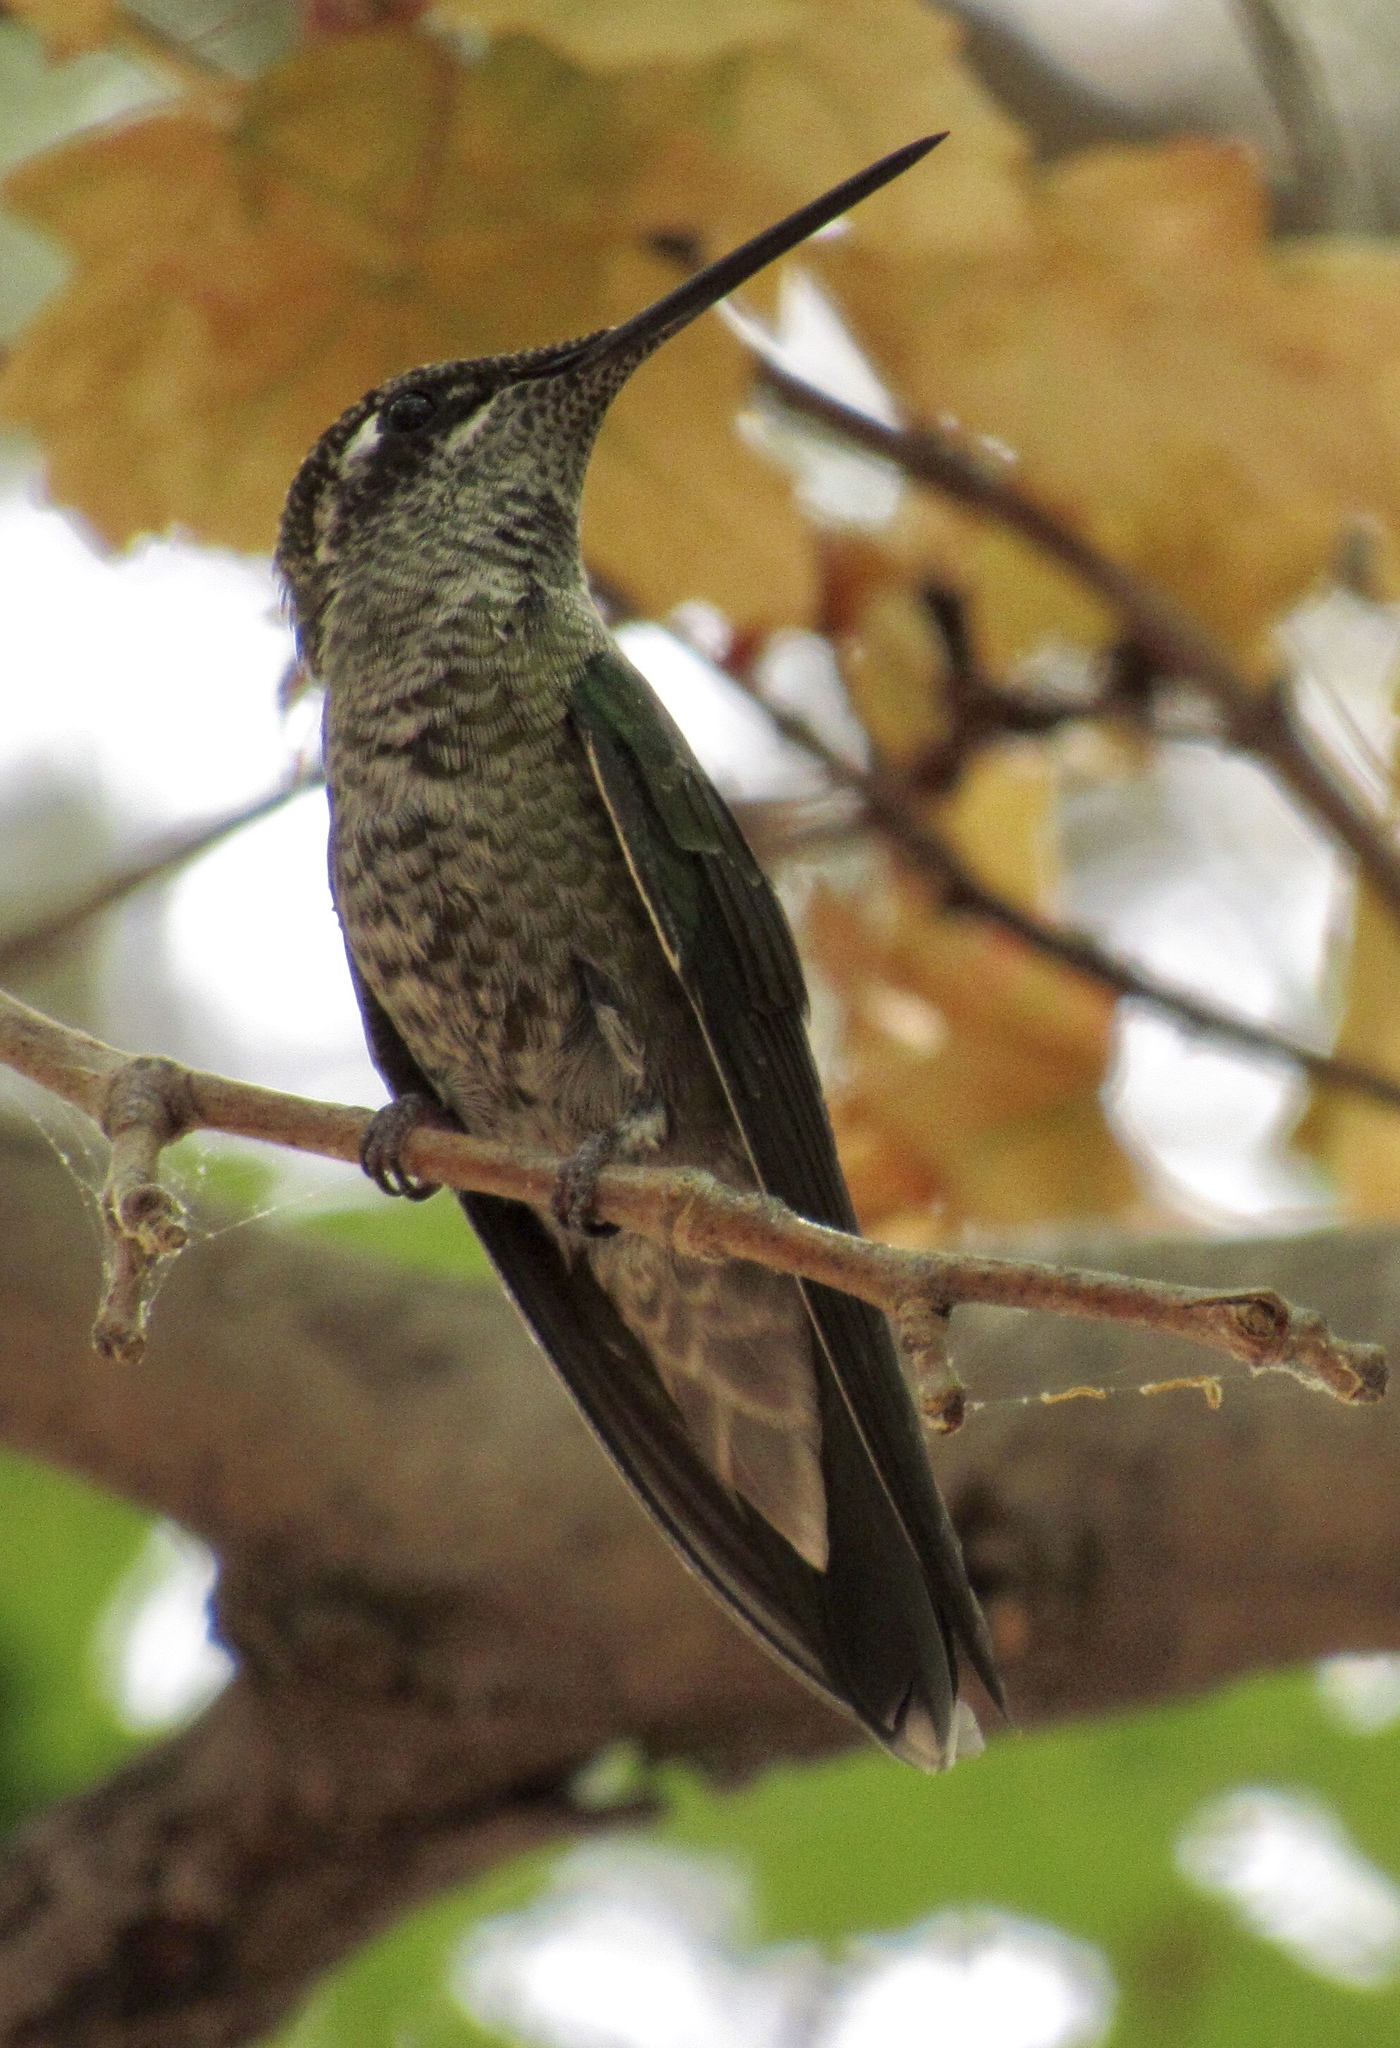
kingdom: Animalia
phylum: Chordata
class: Aves
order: Apodiformes
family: Trochilidae
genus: Eugenes
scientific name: Eugenes fulgens
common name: Magnificent hummingbird
